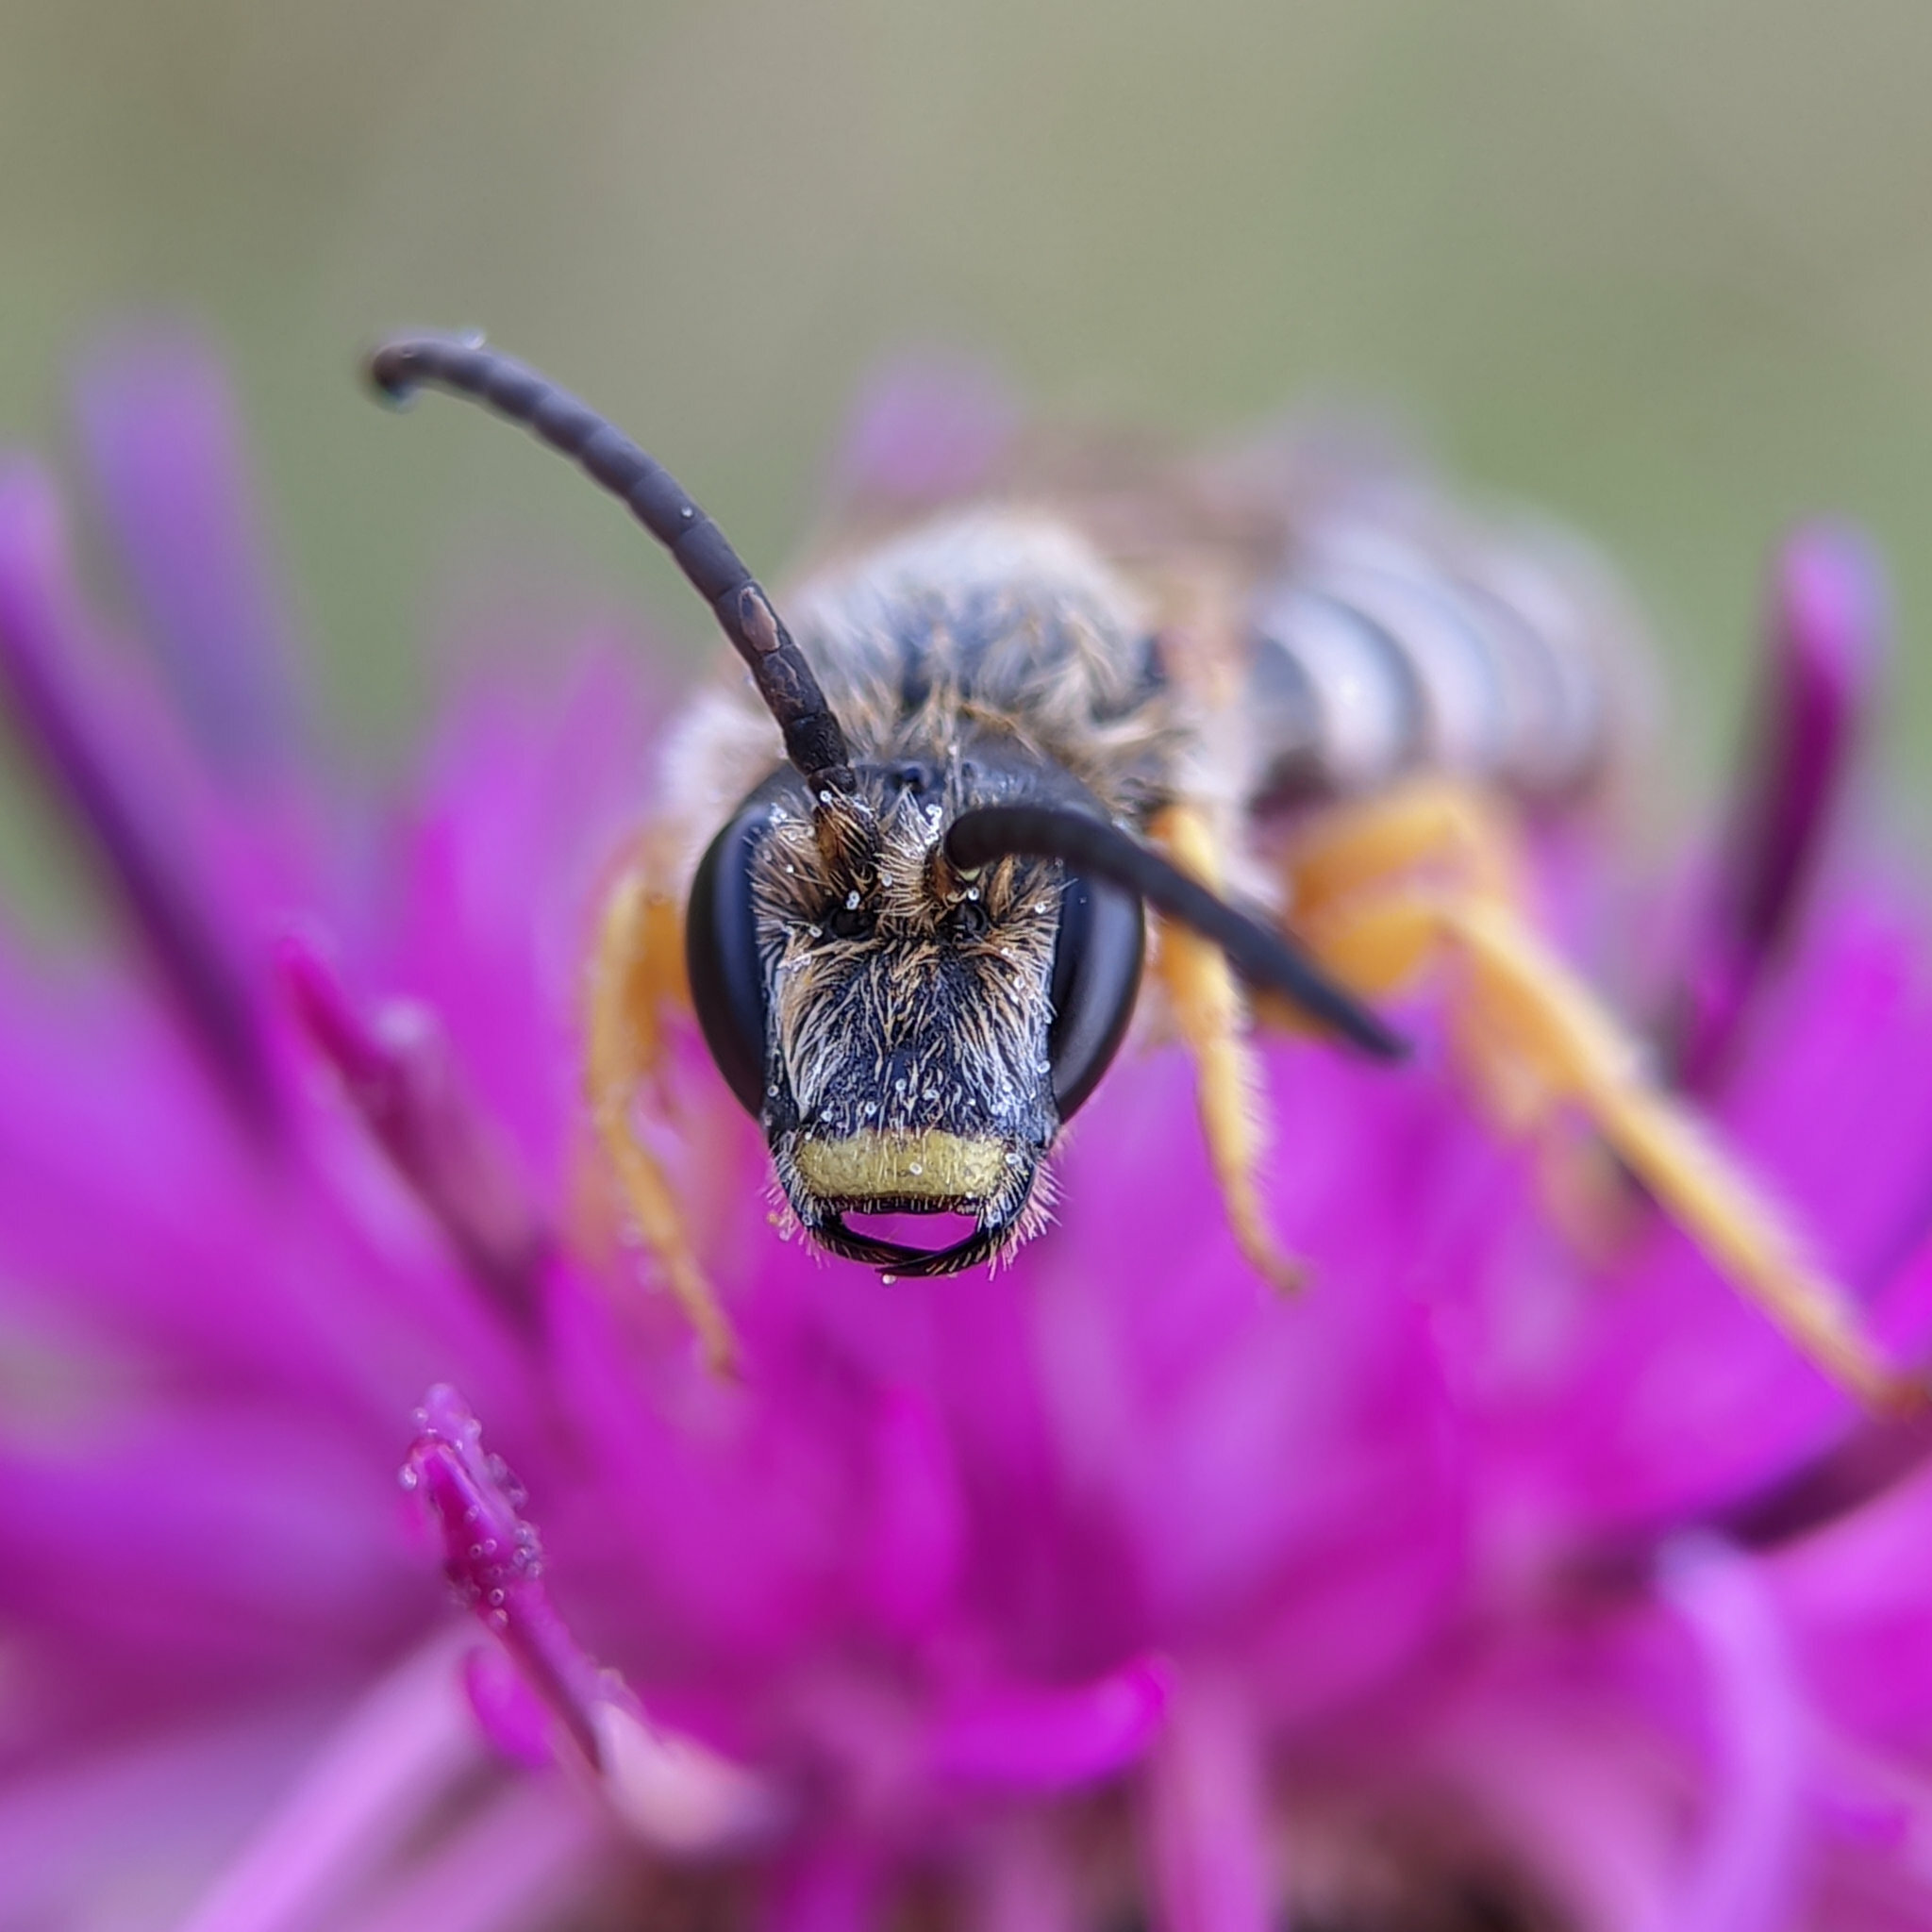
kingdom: Animalia
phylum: Arthropoda
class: Insecta
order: Hymenoptera
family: Halictidae
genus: Halictus
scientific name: Halictus scabiosae
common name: Great banded furrow bee
